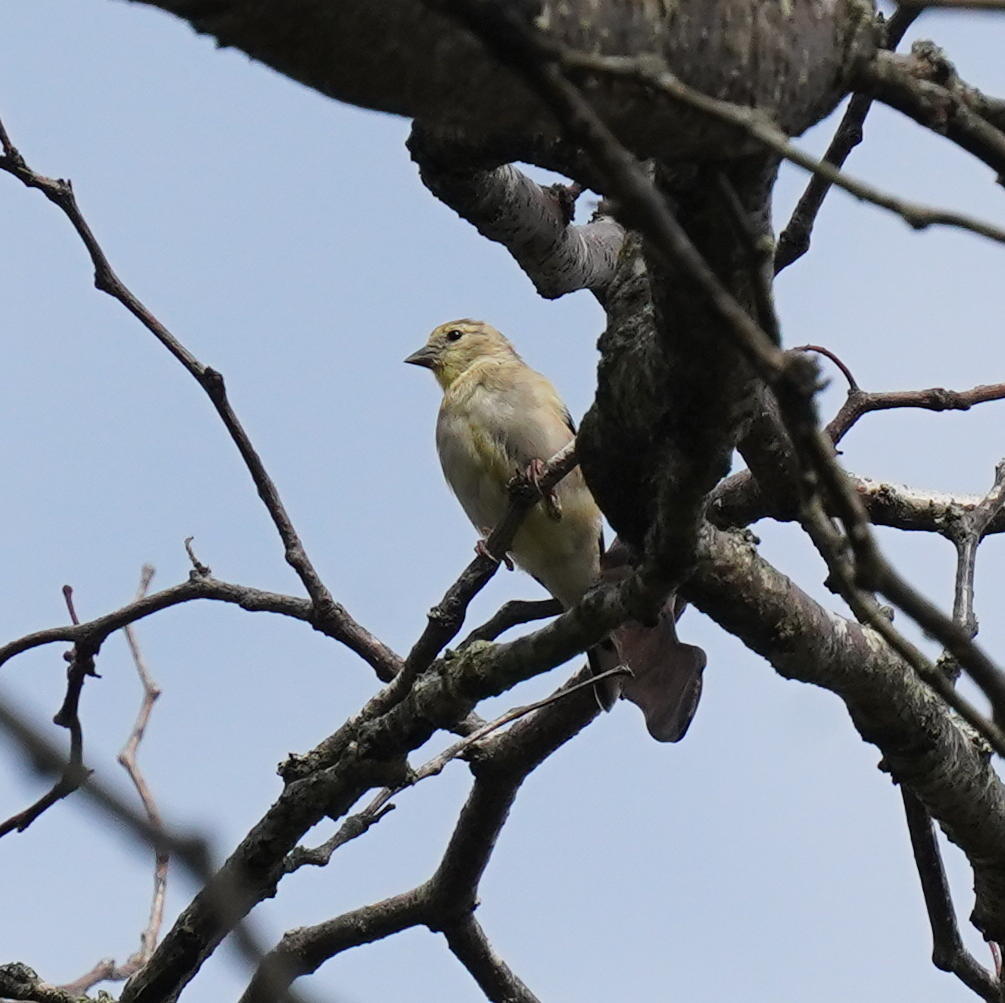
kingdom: Animalia
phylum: Chordata
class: Aves
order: Passeriformes
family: Fringillidae
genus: Spinus
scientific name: Spinus tristis
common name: American goldfinch
